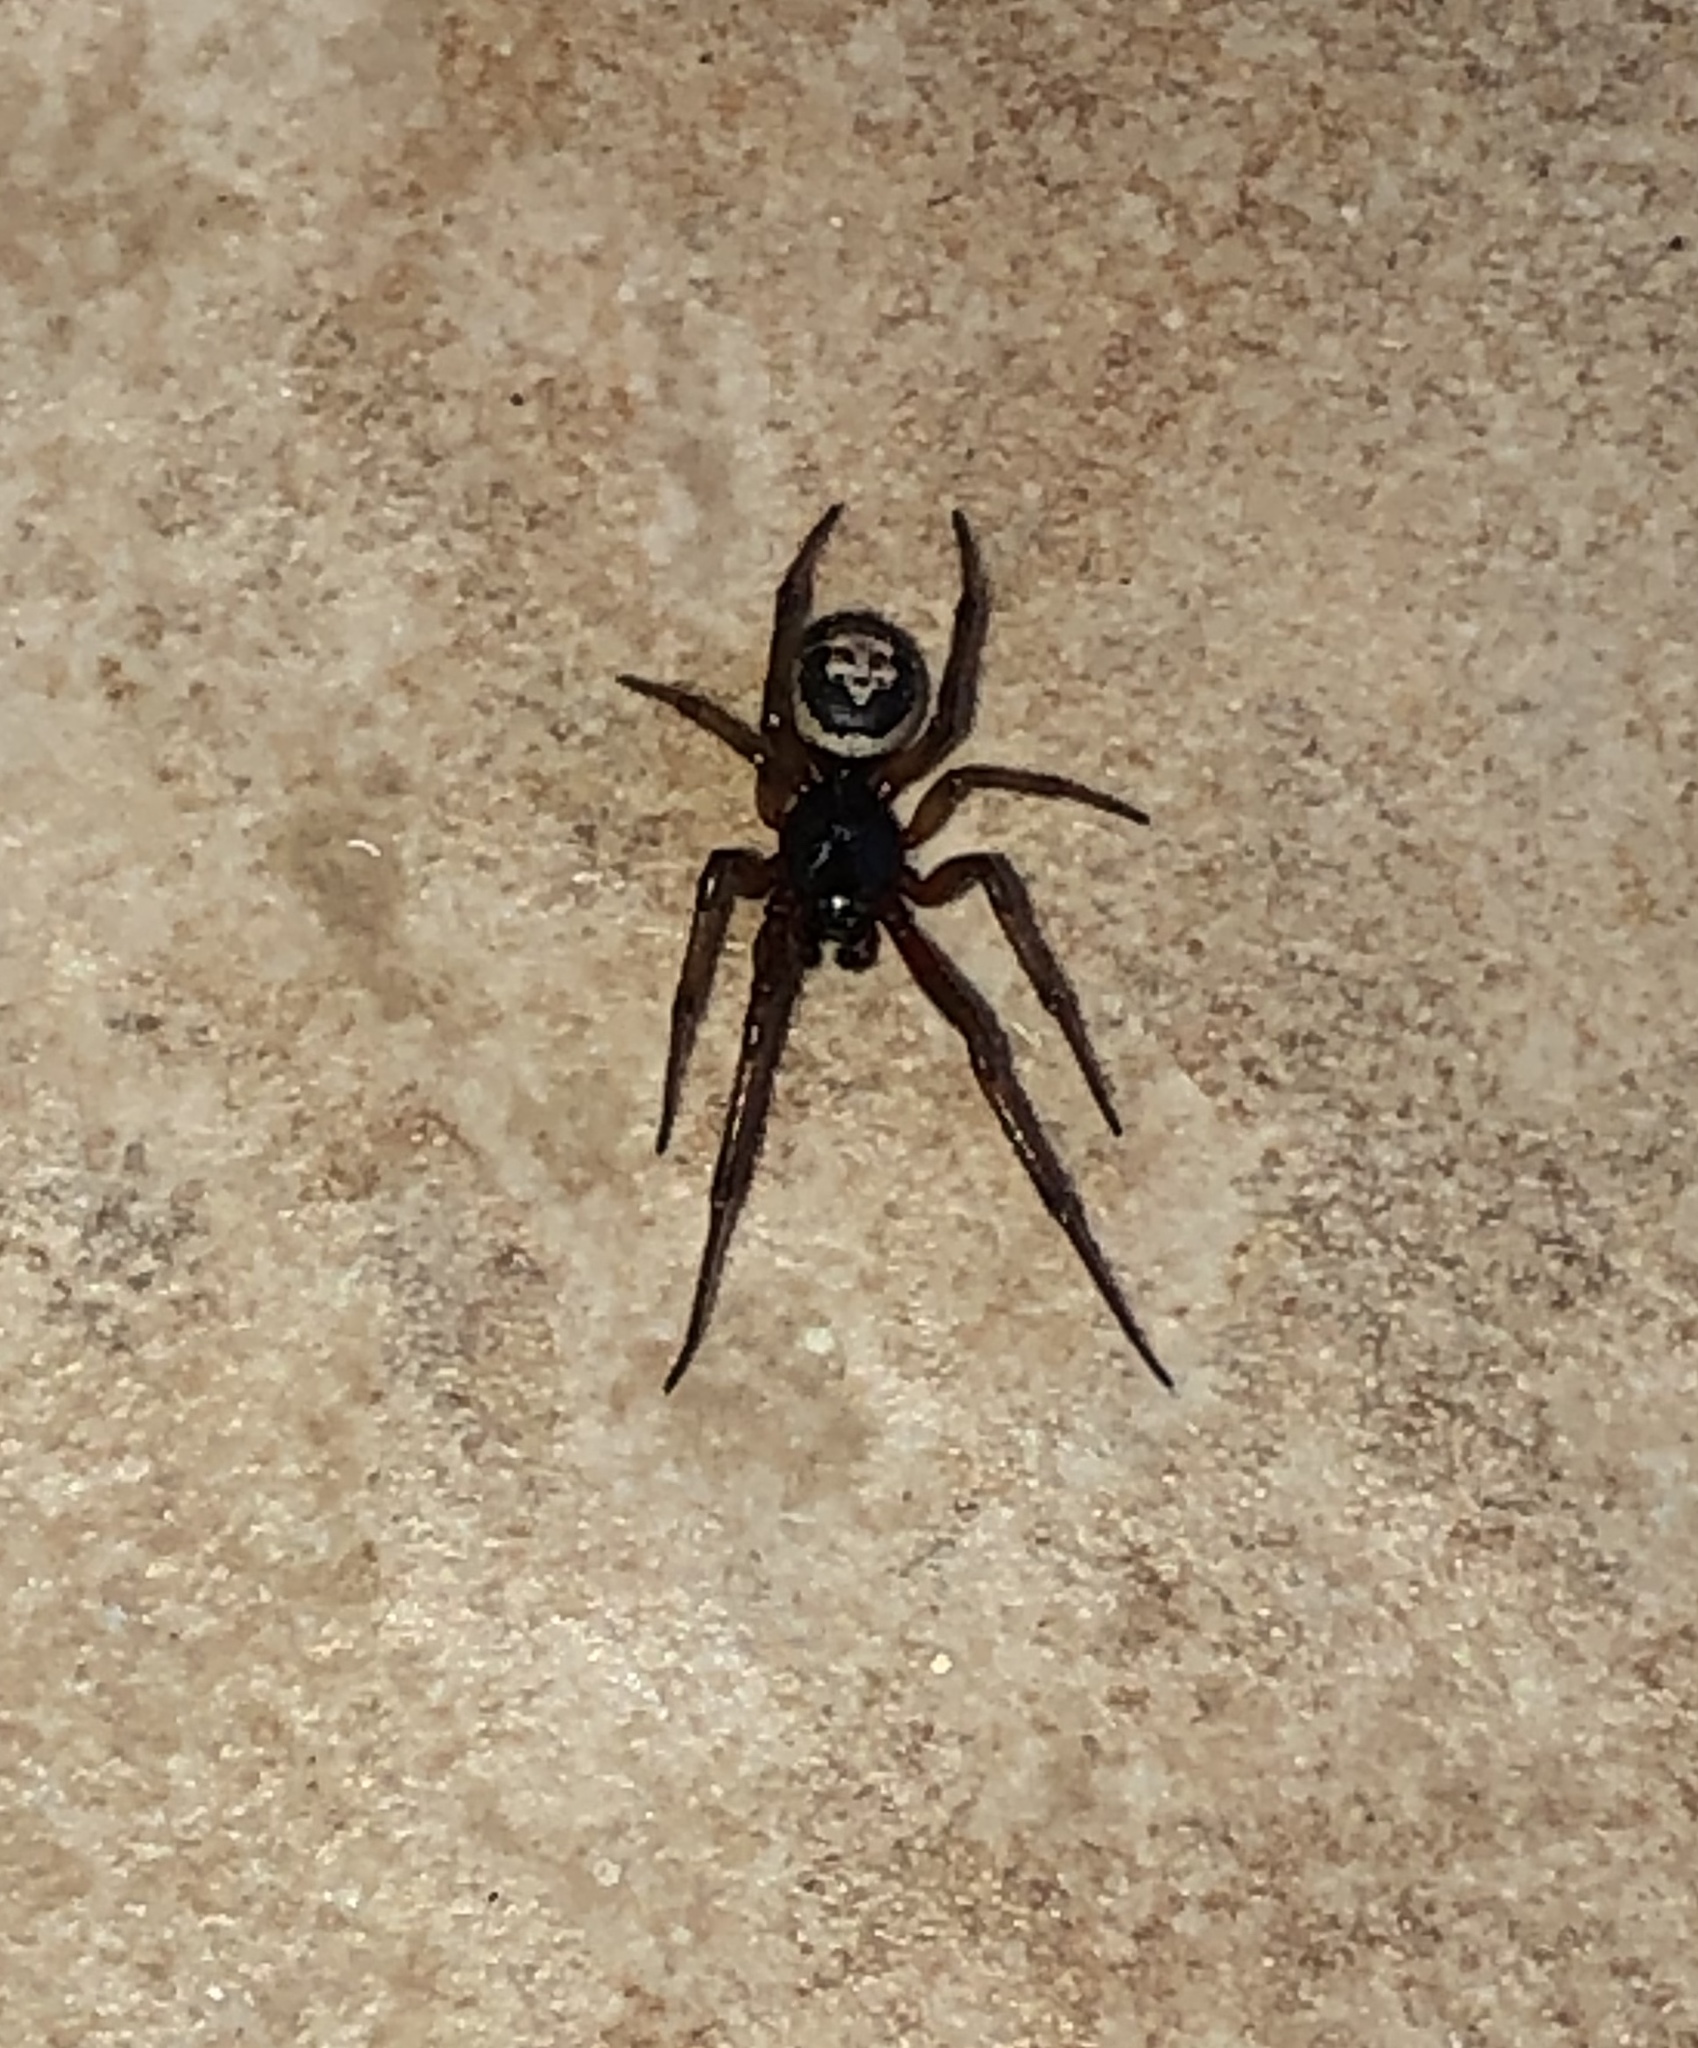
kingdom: Animalia
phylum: Arthropoda
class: Arachnida
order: Araneae
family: Theridiidae
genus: Steatoda
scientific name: Steatoda nobilis
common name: Cobweb weaver
